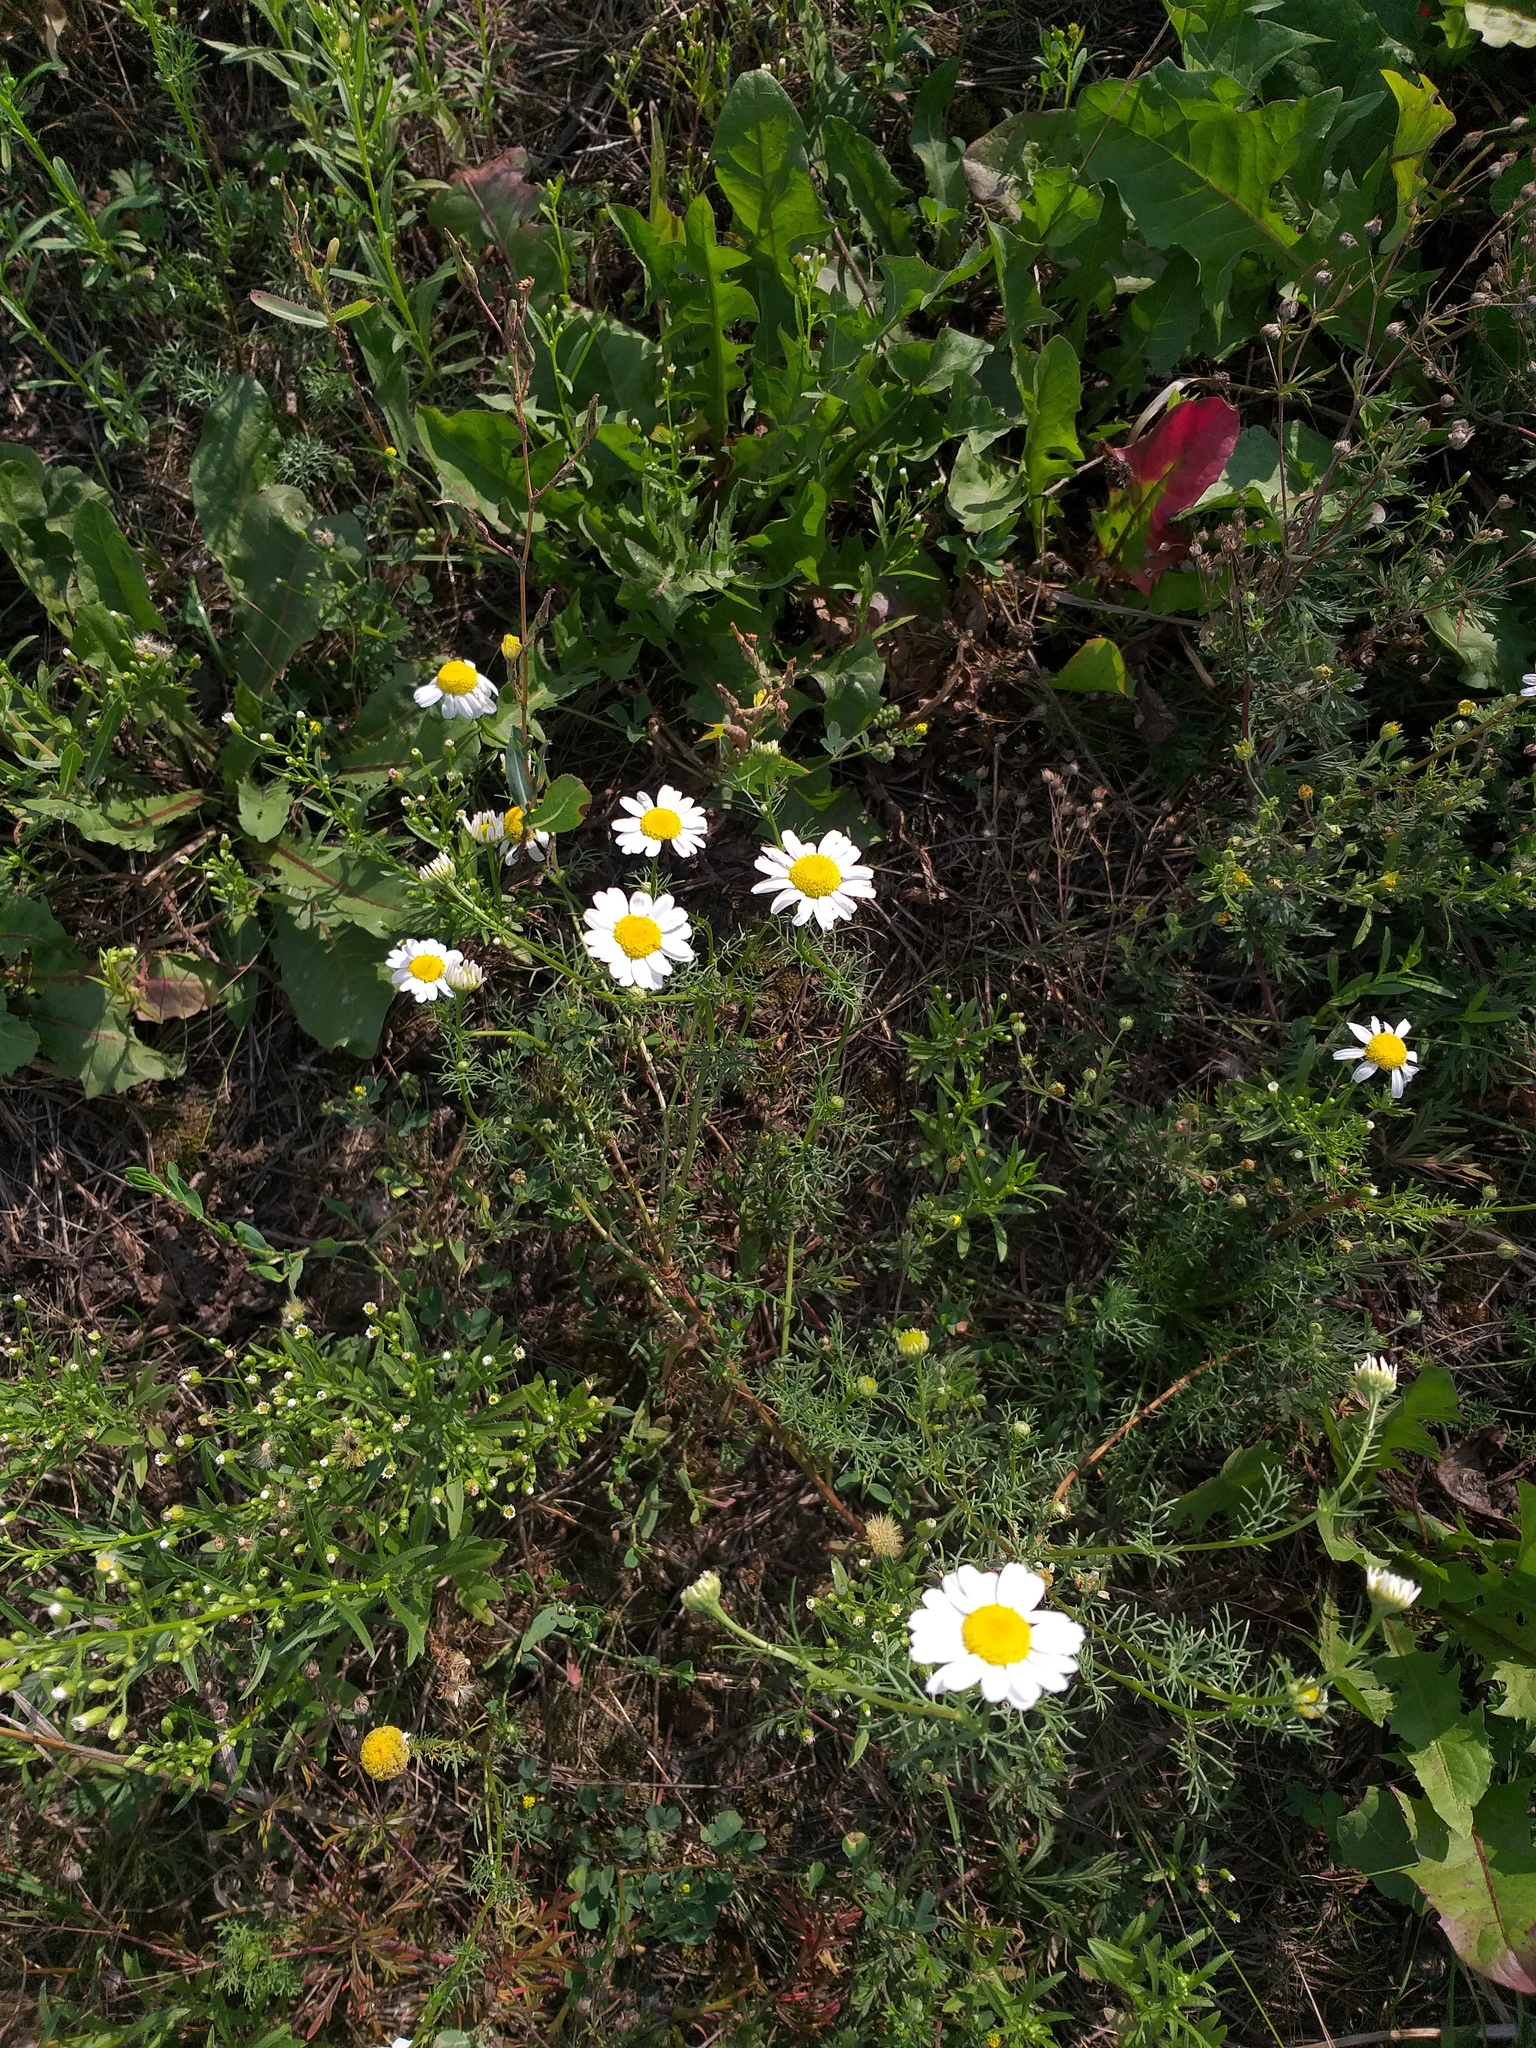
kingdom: Plantae
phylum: Tracheophyta
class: Magnoliopsida
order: Asterales
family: Asteraceae
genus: Tripleurospermum
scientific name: Tripleurospermum inodorum
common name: Scentless mayweed
